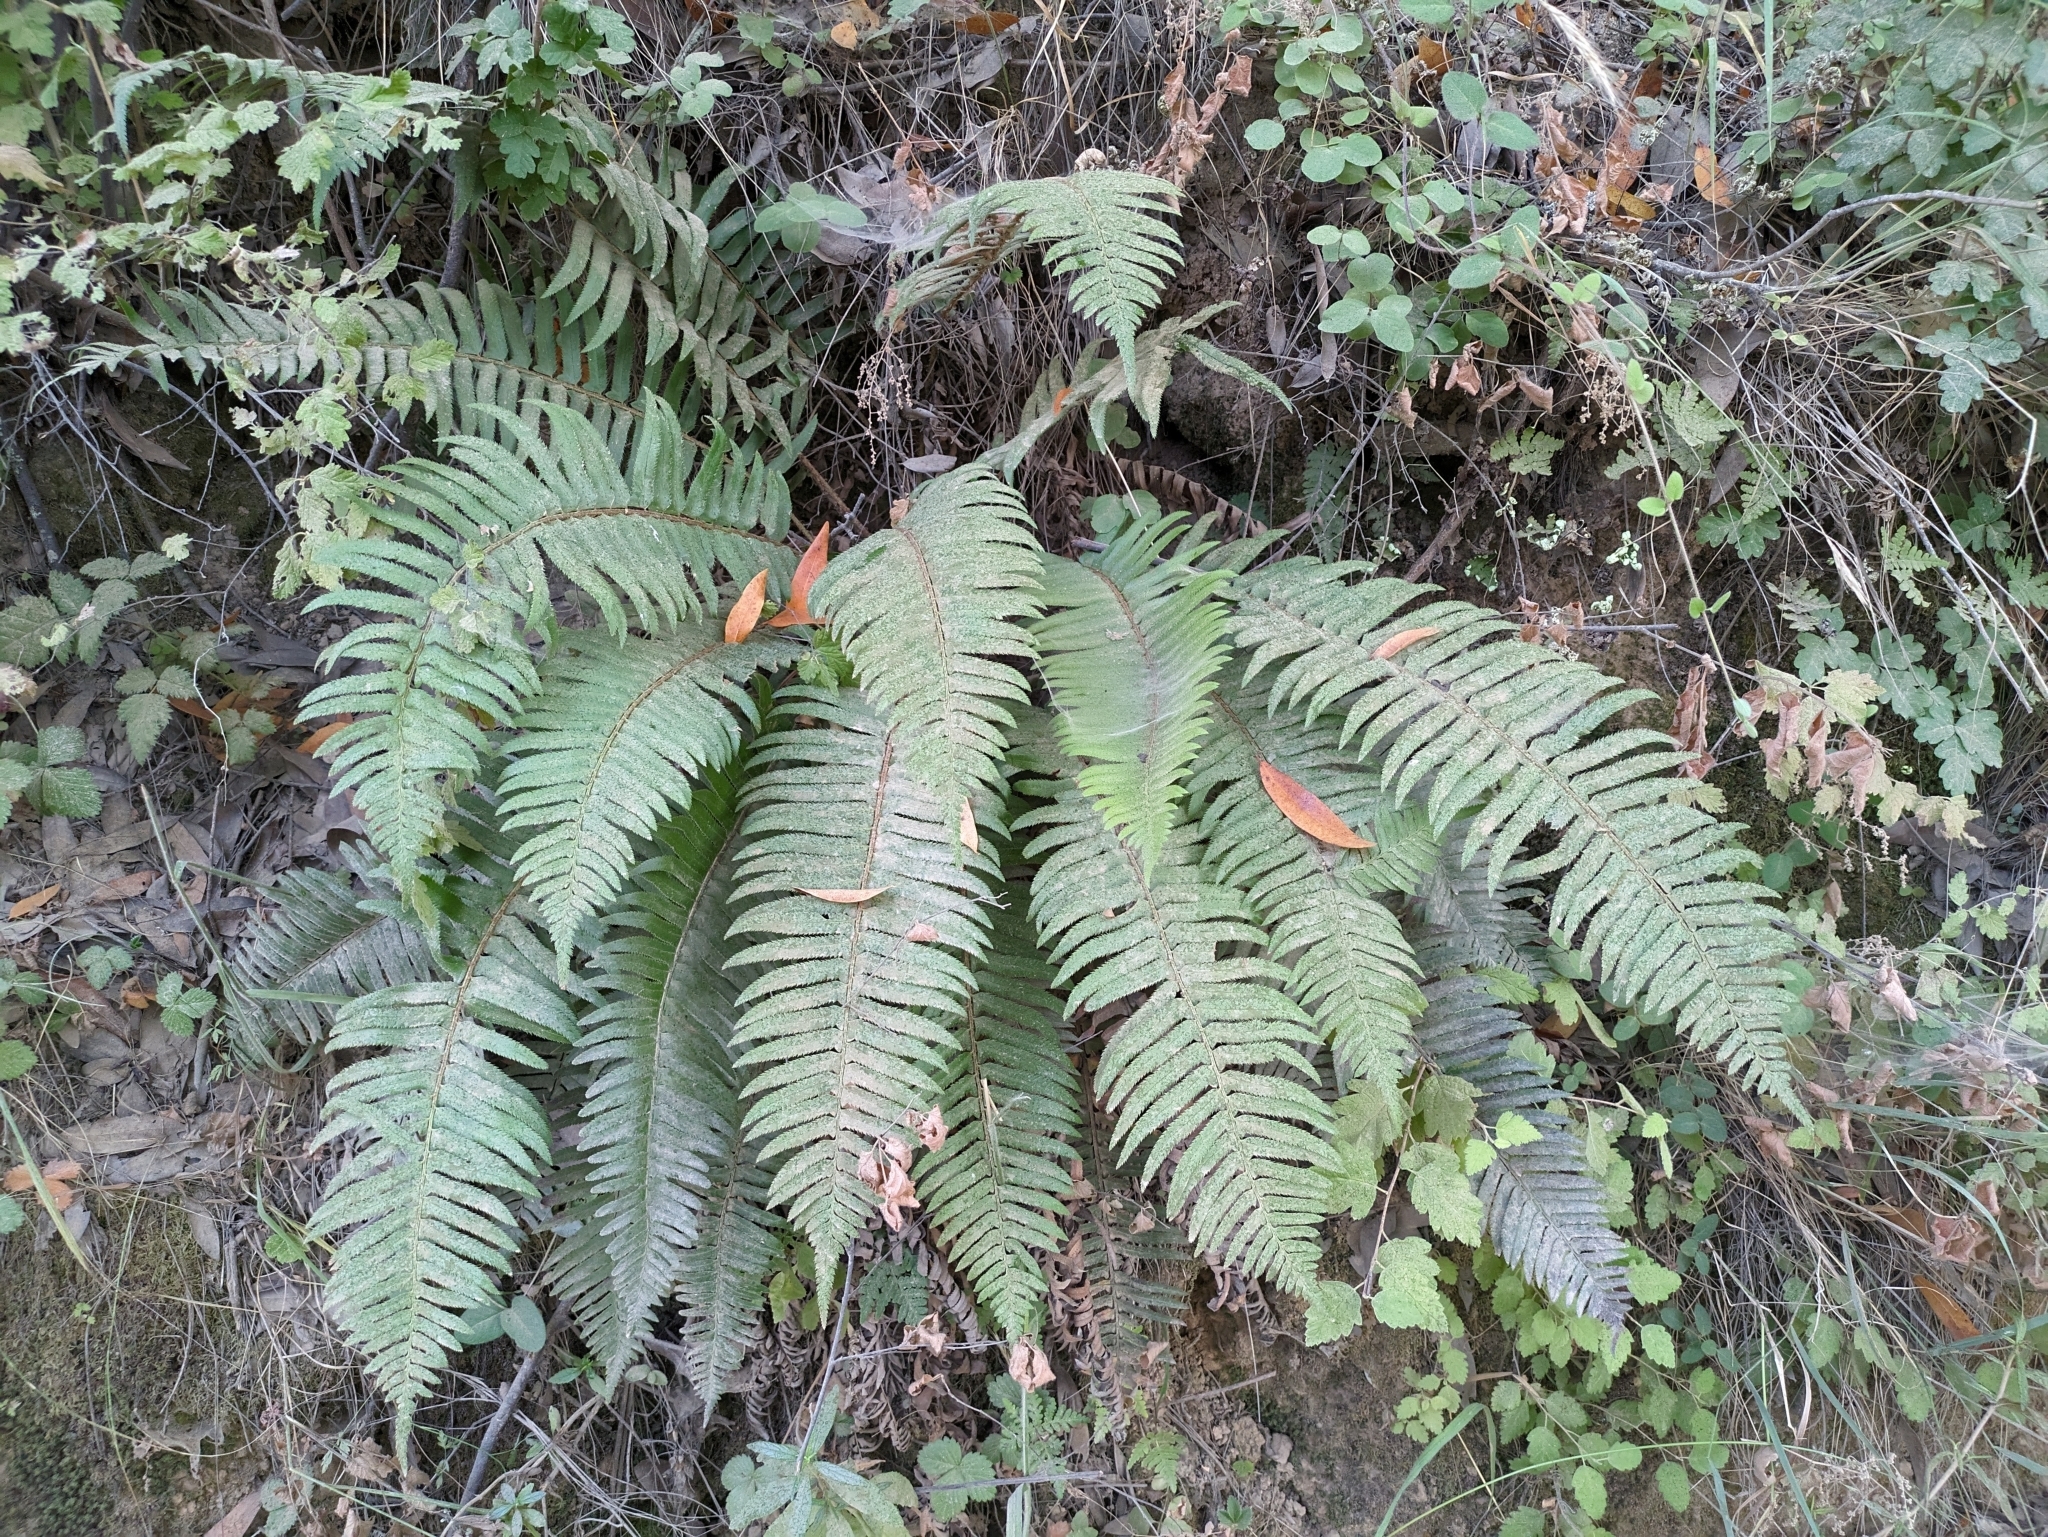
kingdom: Plantae
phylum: Tracheophyta
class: Polypodiopsida
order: Polypodiales
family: Dryopteridaceae
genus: Polystichum
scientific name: Polystichum munitum
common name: Western sword-fern
